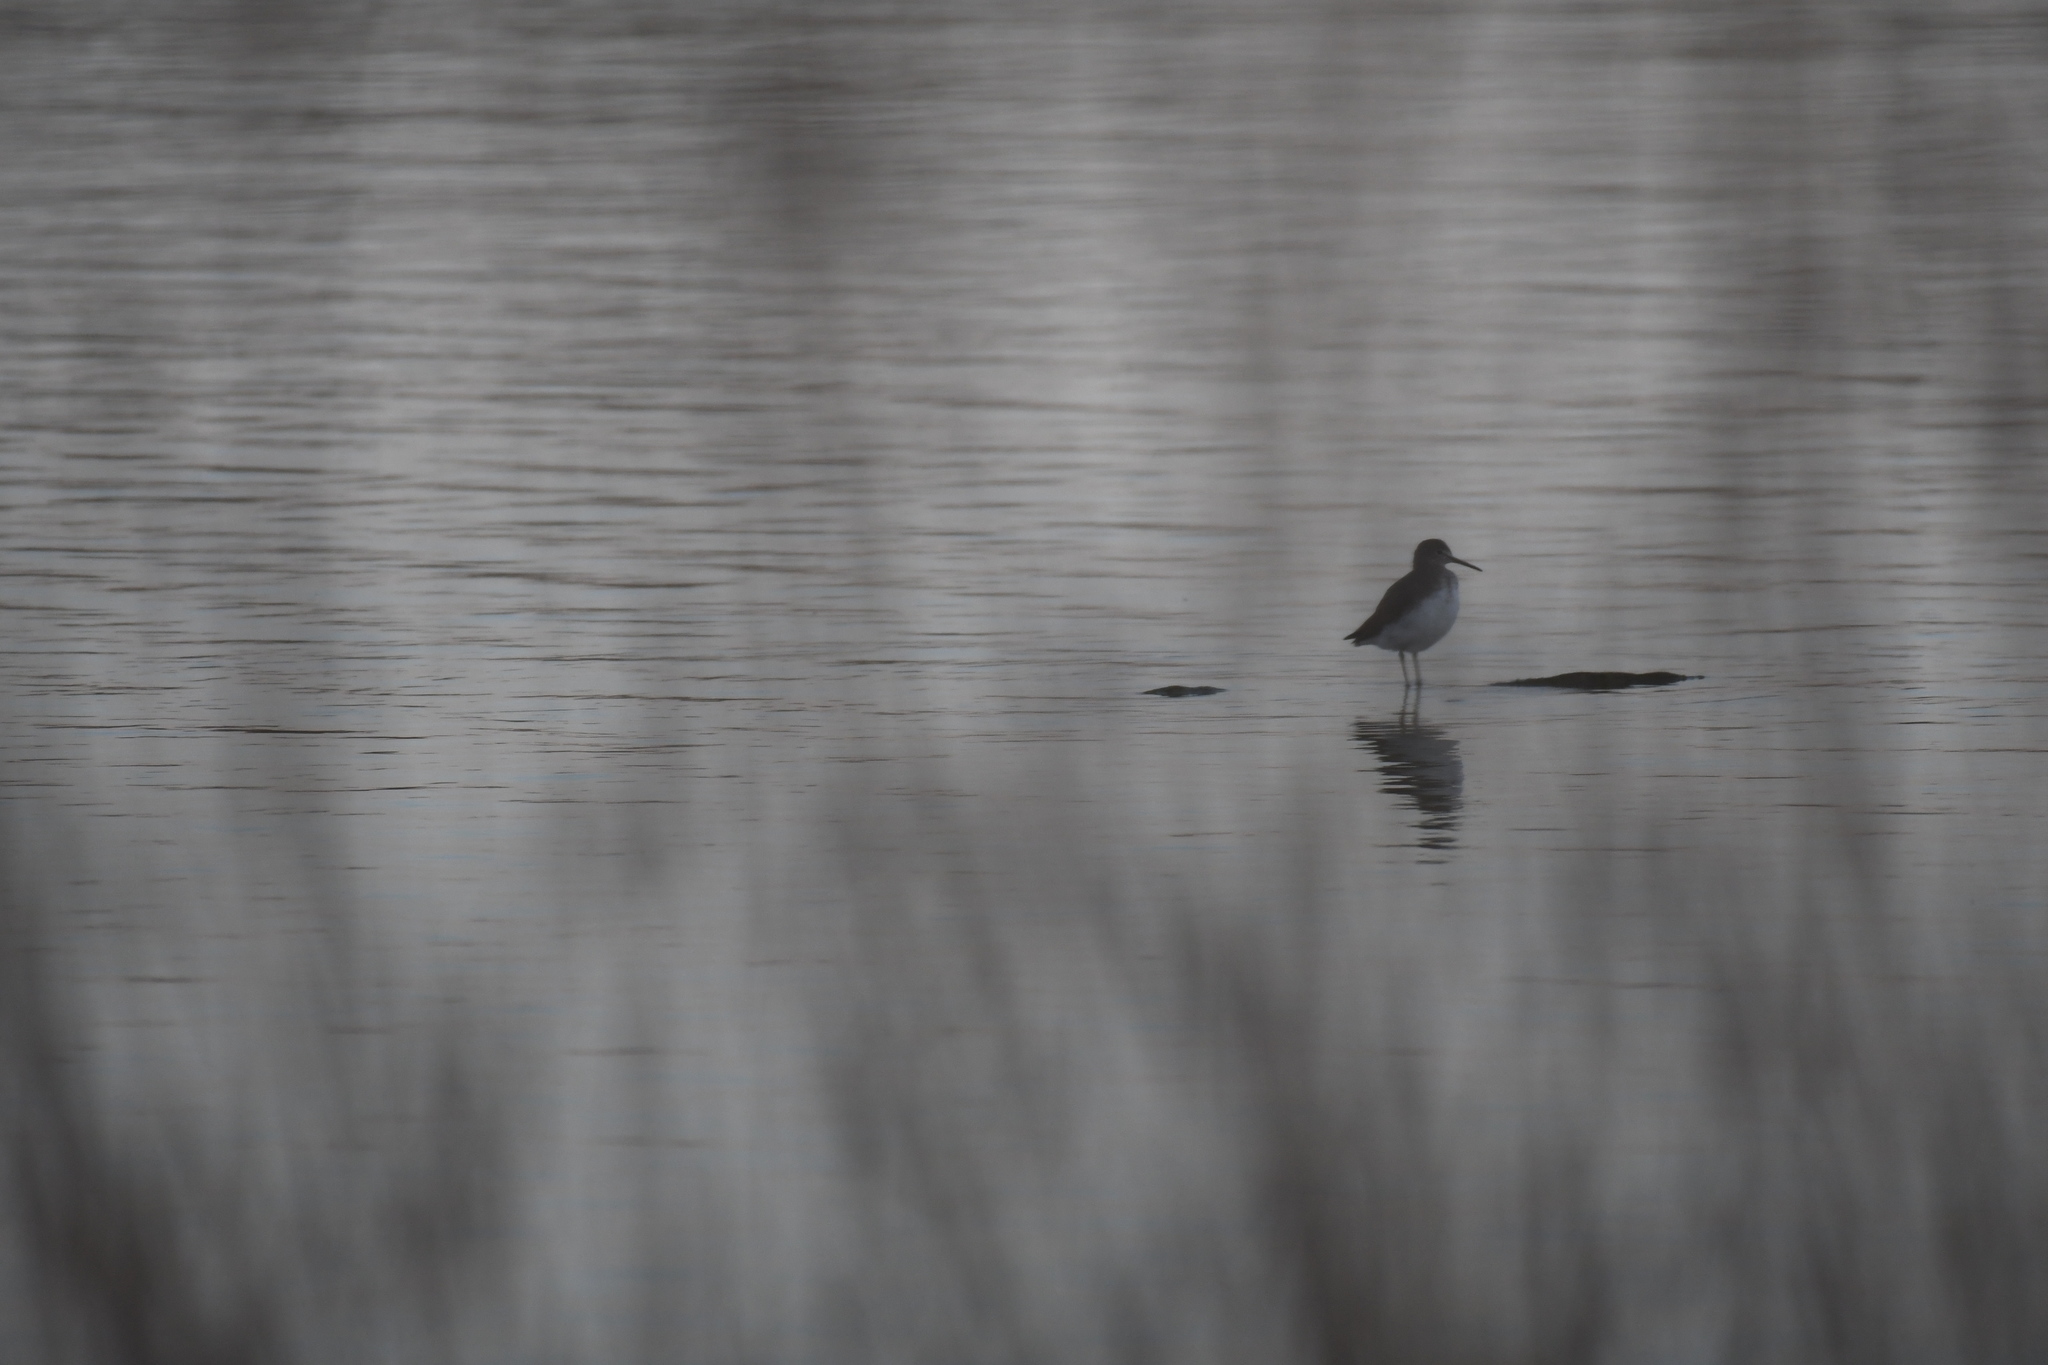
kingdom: Animalia
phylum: Chordata
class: Aves
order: Charadriiformes
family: Scolopacidae
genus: Tringa
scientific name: Tringa ochropus
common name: Green sandpiper
